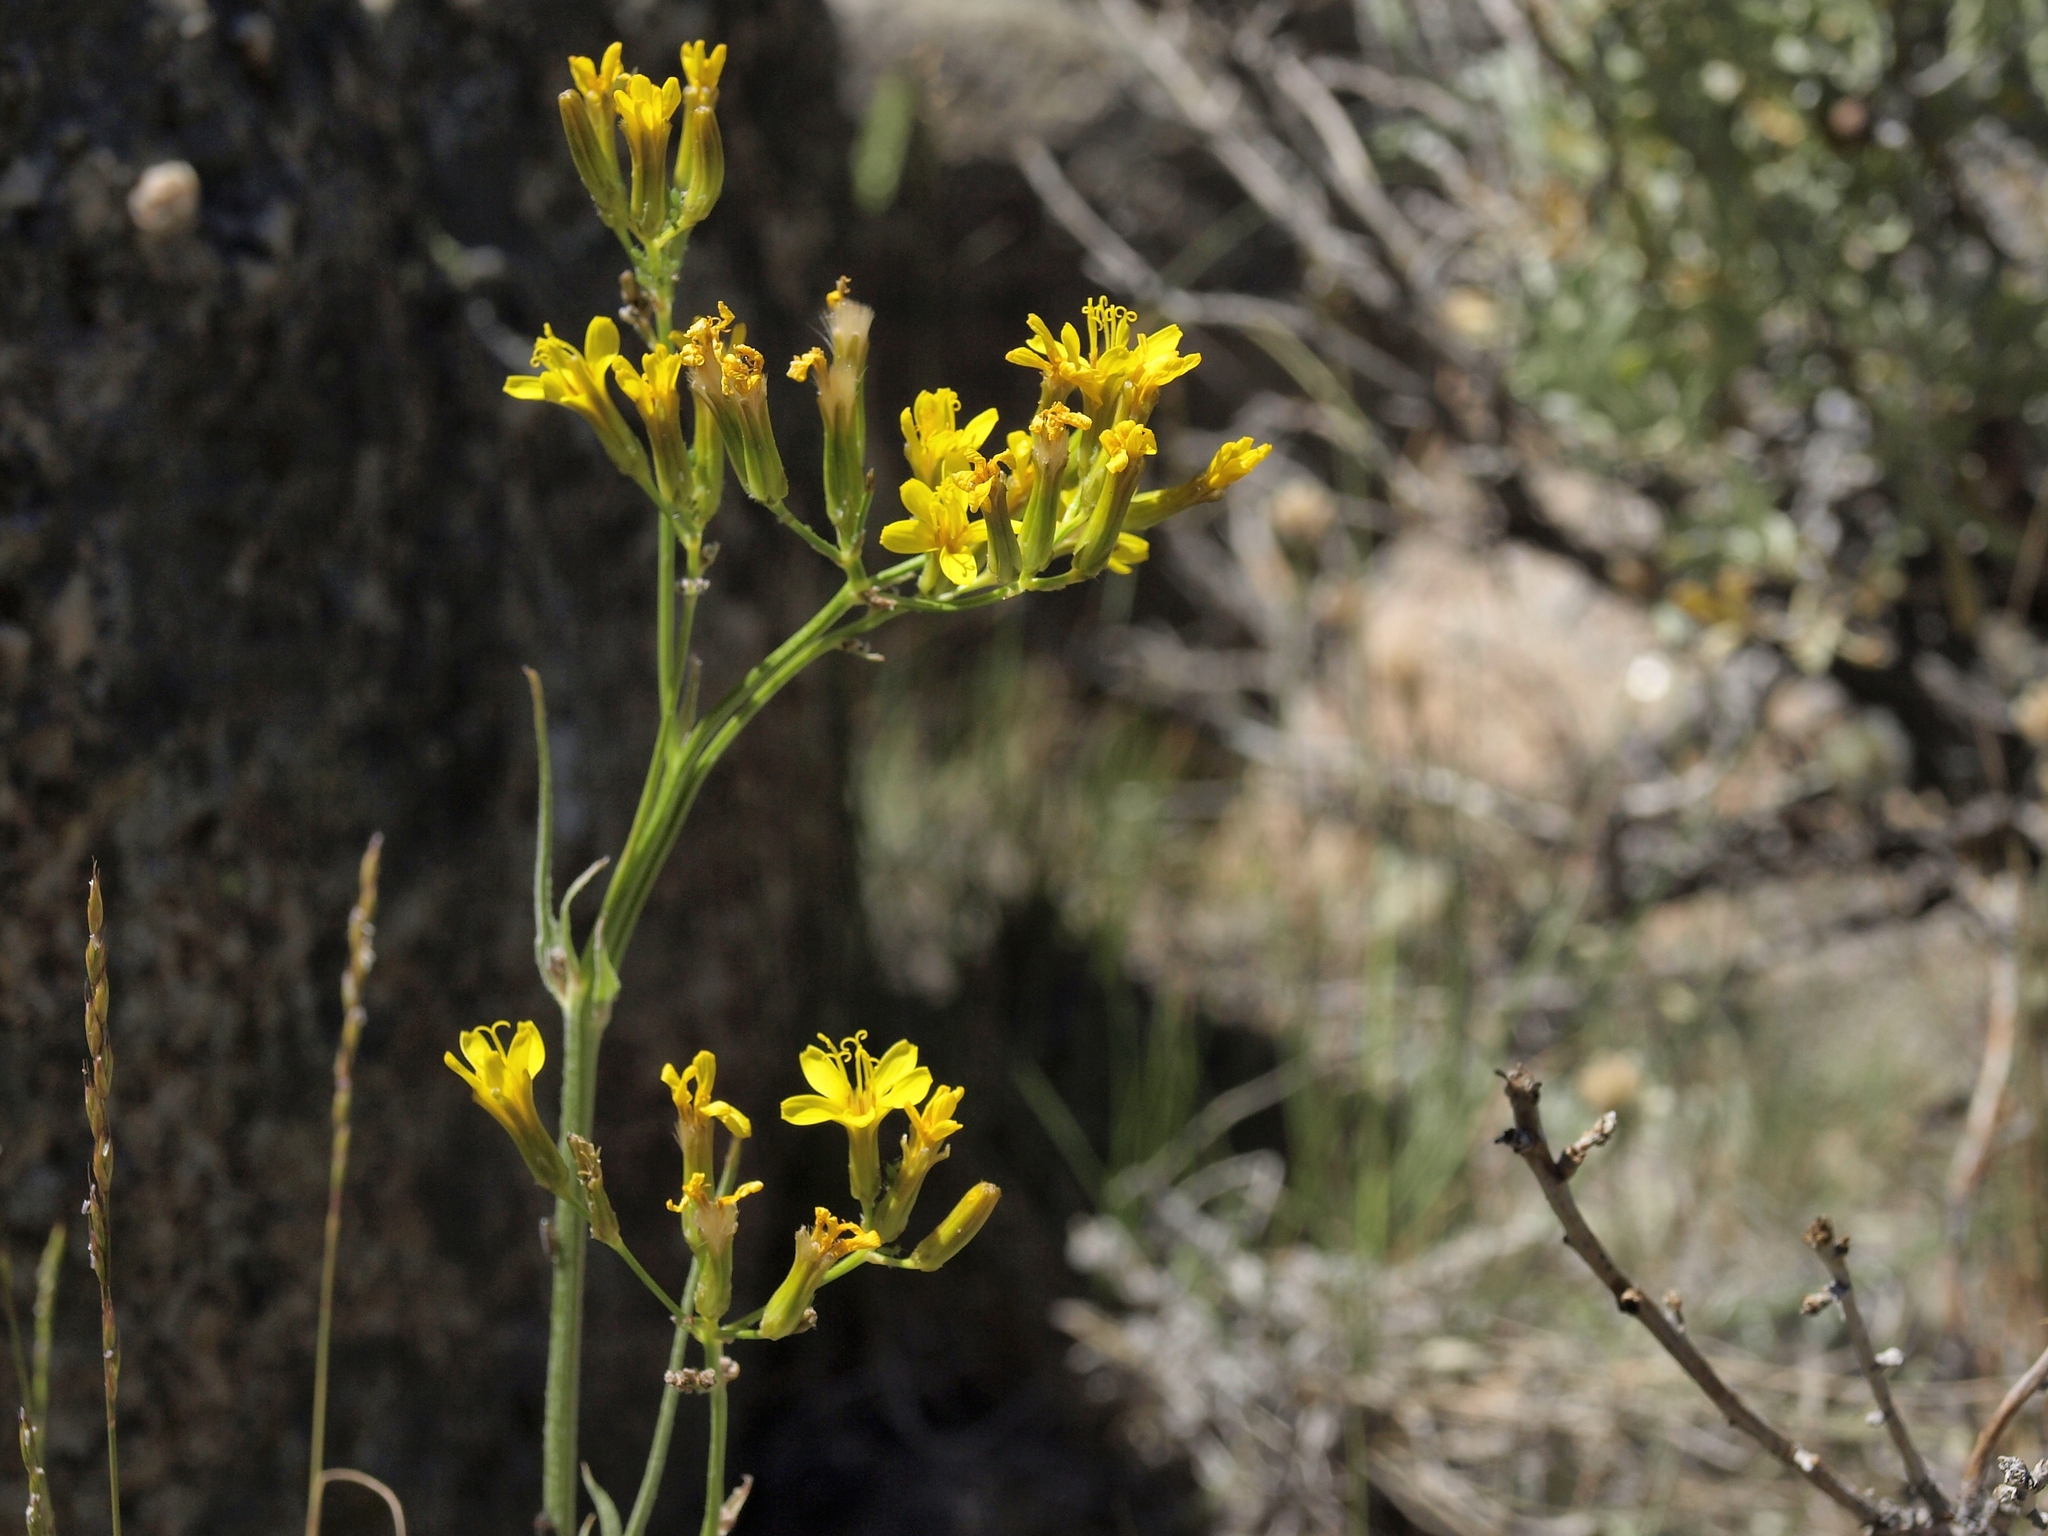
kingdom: Plantae
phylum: Tracheophyta
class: Magnoliopsida
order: Asterales
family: Asteraceae
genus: Crepis
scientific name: Crepis acuminata
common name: Longleaf hawk's-beard
